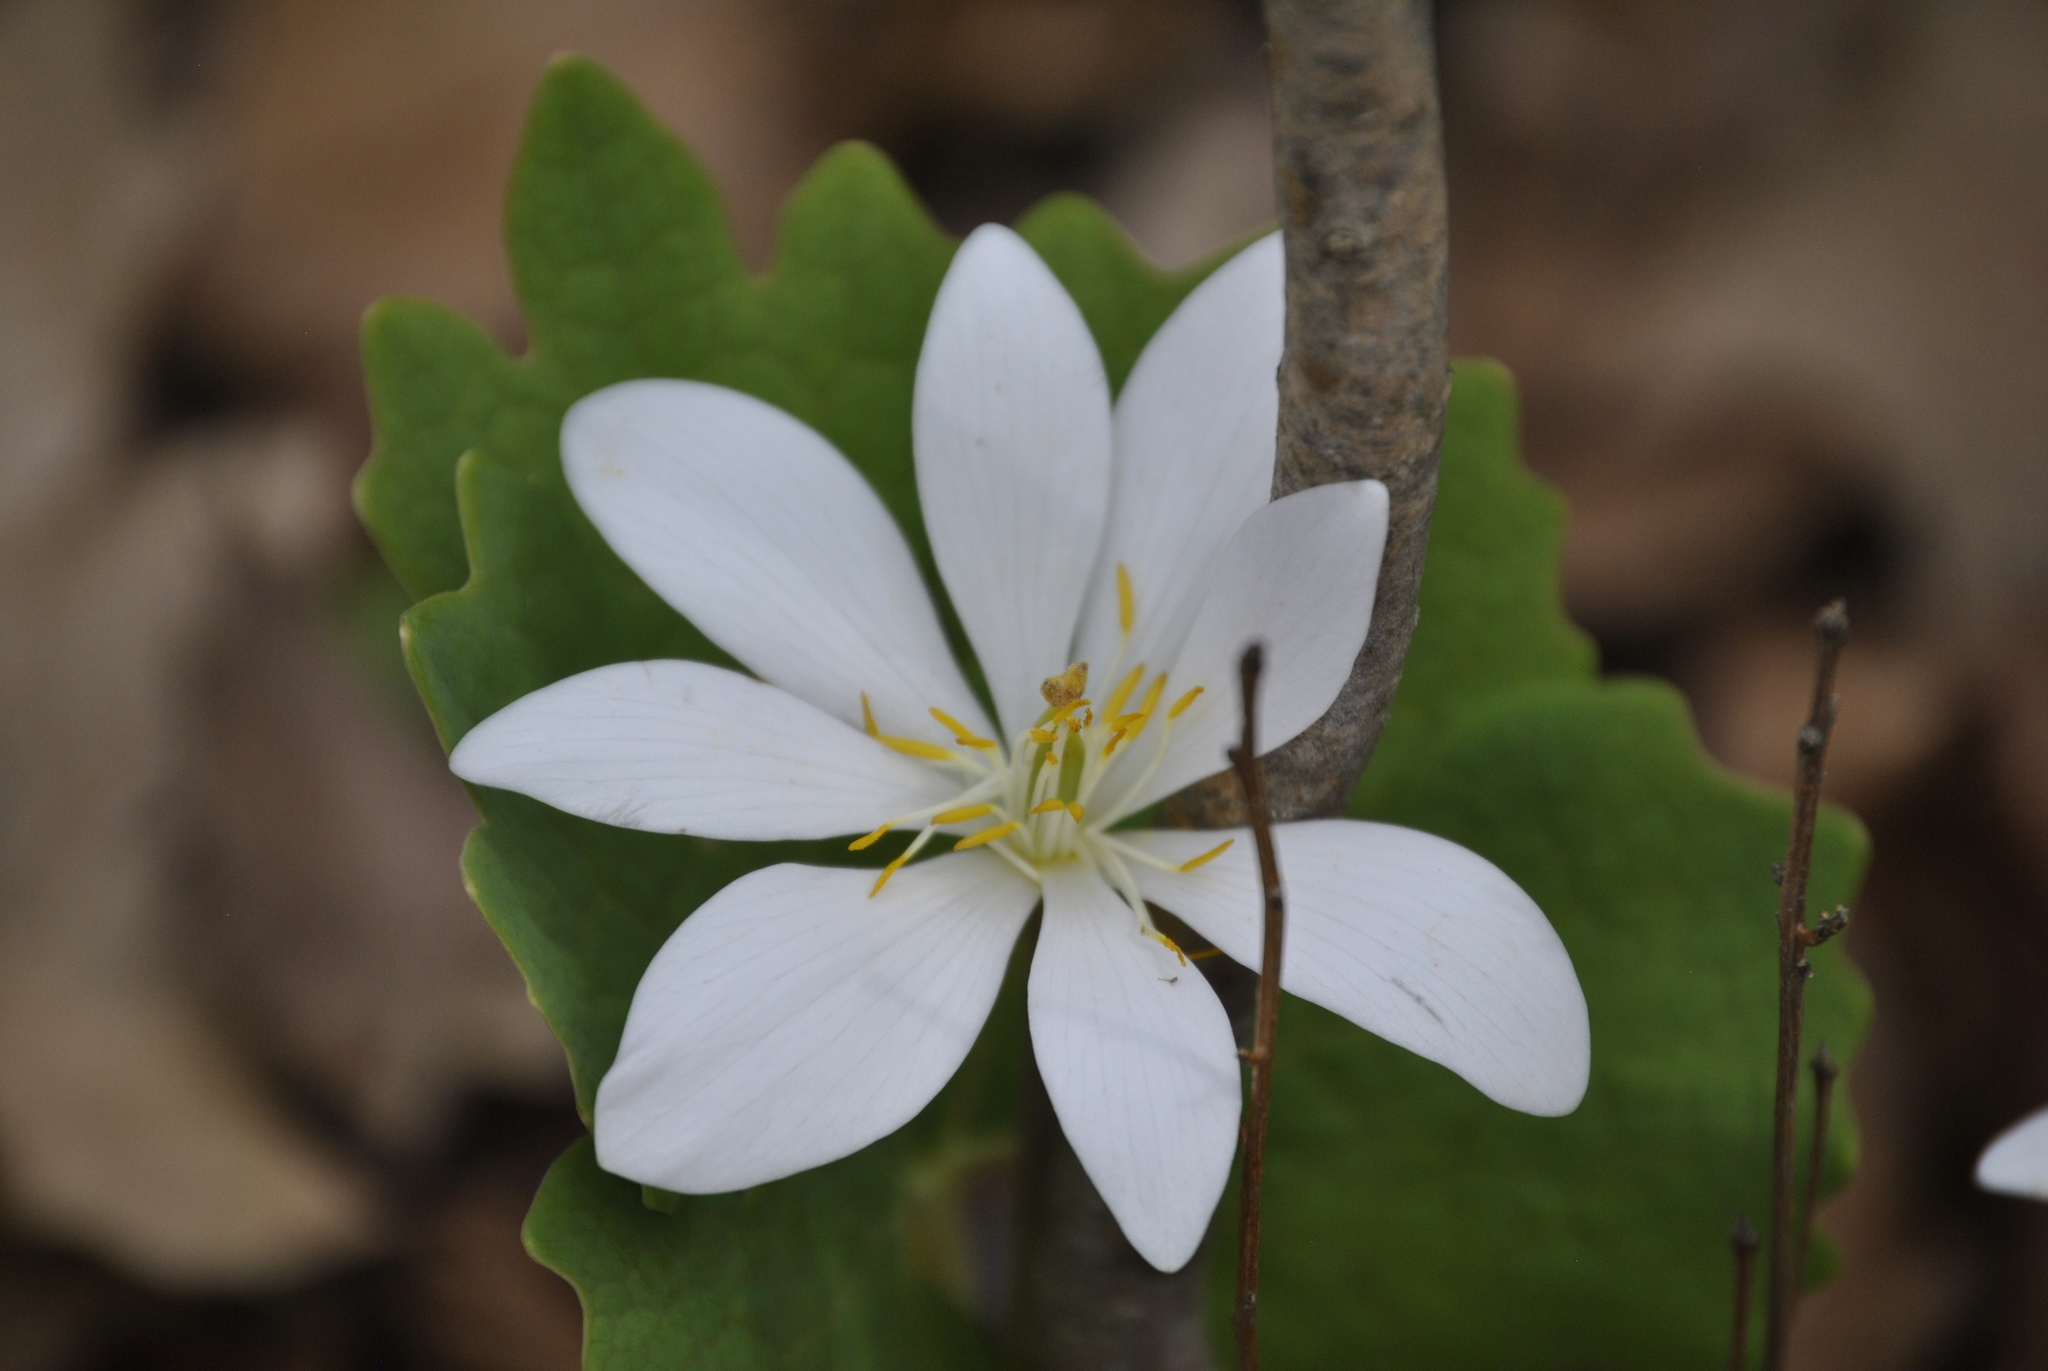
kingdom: Plantae
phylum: Tracheophyta
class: Magnoliopsida
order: Ranunculales
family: Papaveraceae
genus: Sanguinaria
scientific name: Sanguinaria canadensis
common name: Bloodroot
